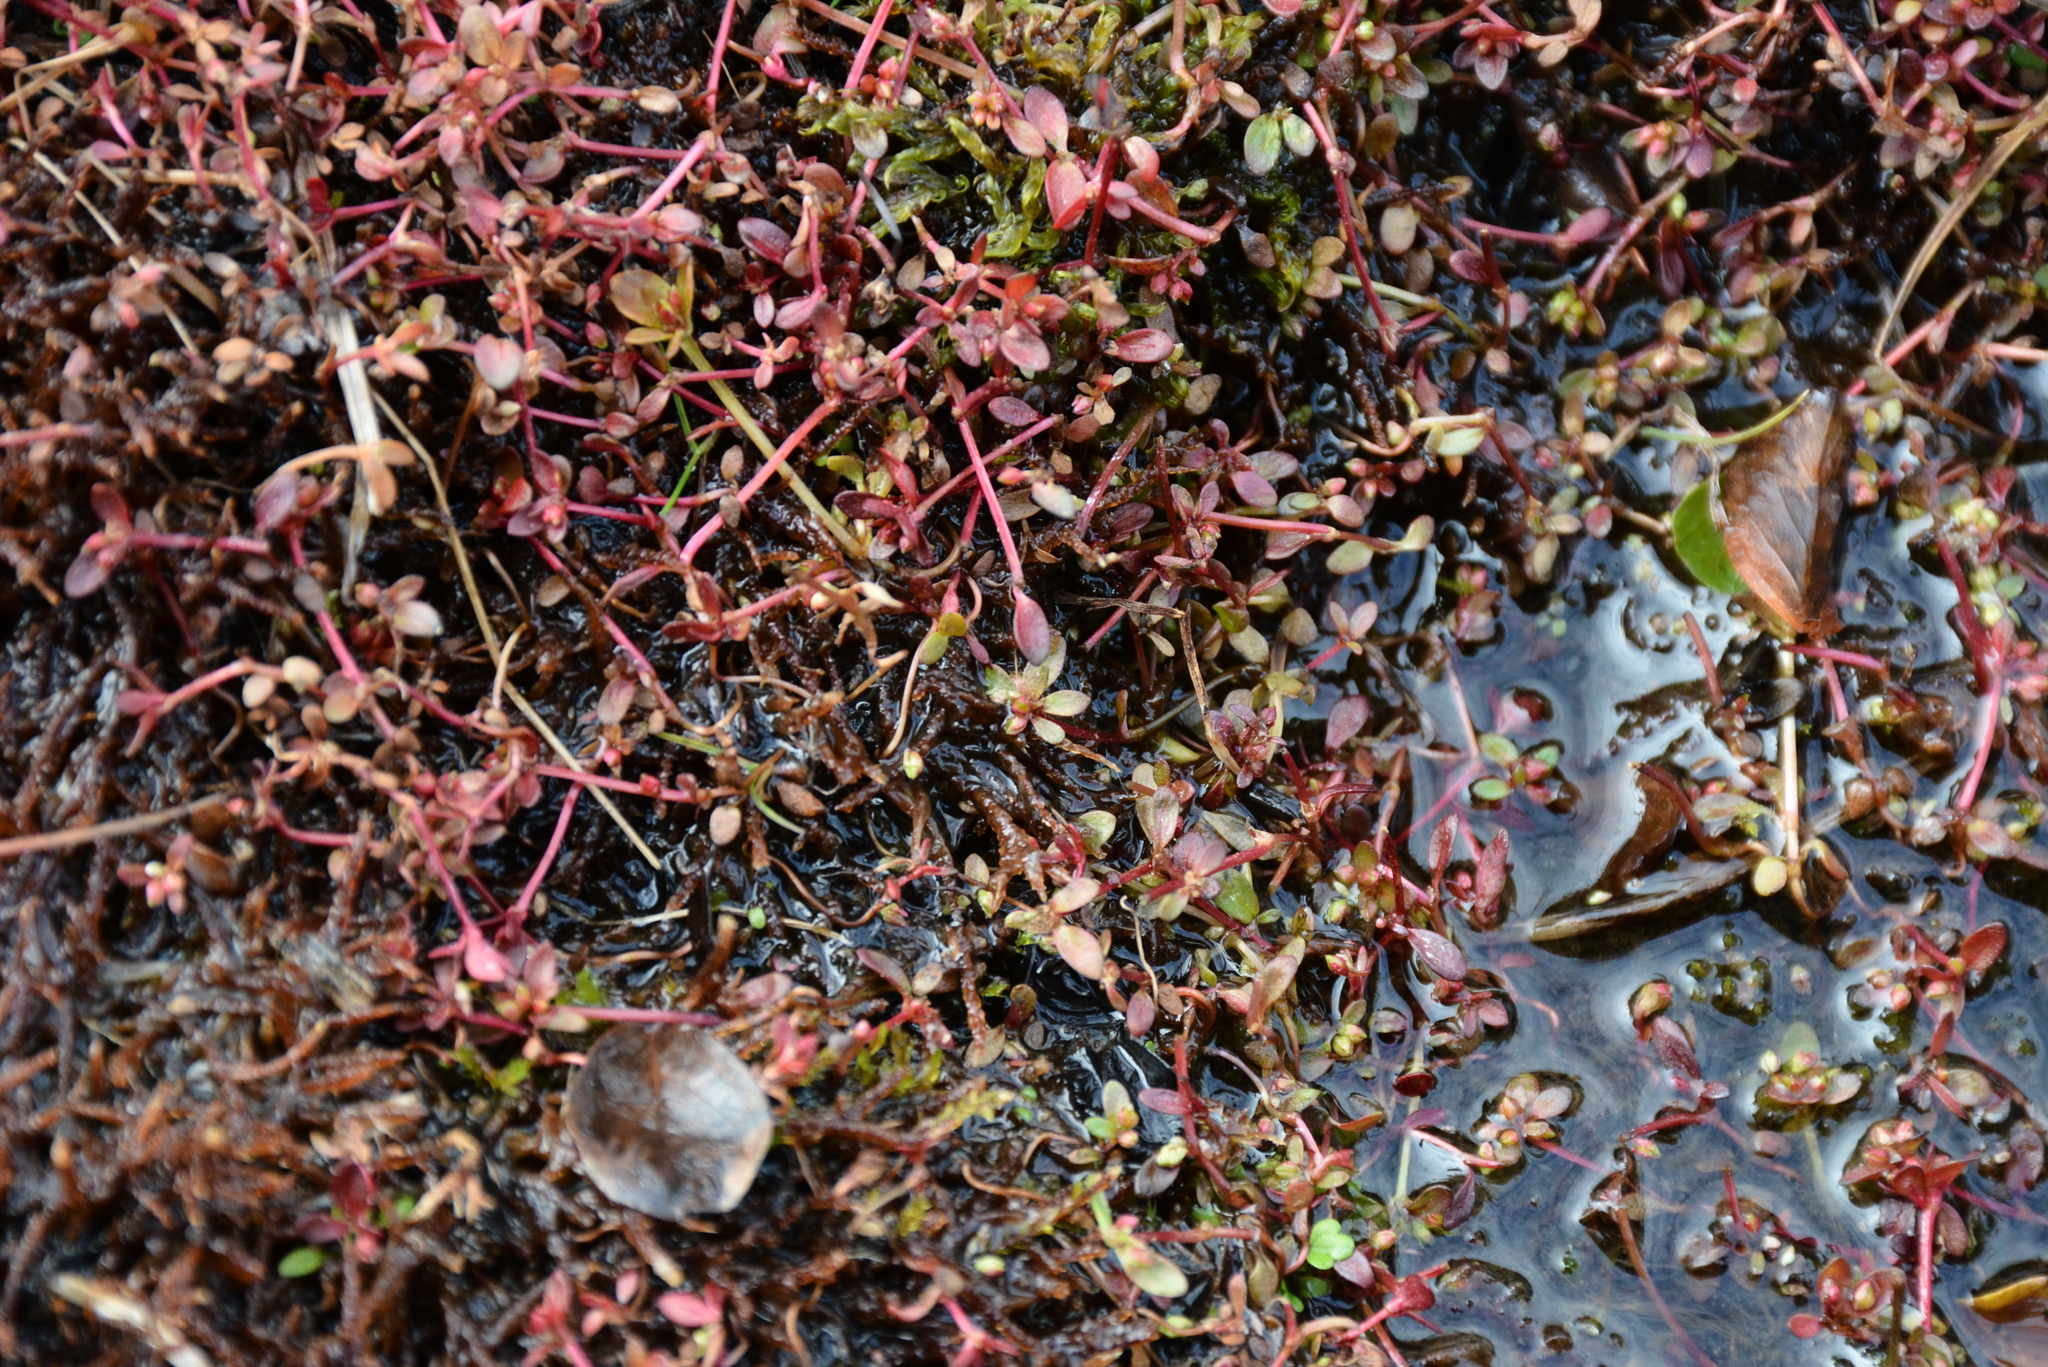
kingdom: Plantae
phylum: Tracheophyta
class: Magnoliopsida
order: Caryophyllales
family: Polygonaceae
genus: Koenigia
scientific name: Koenigia islandica
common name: Iceland-purslane
